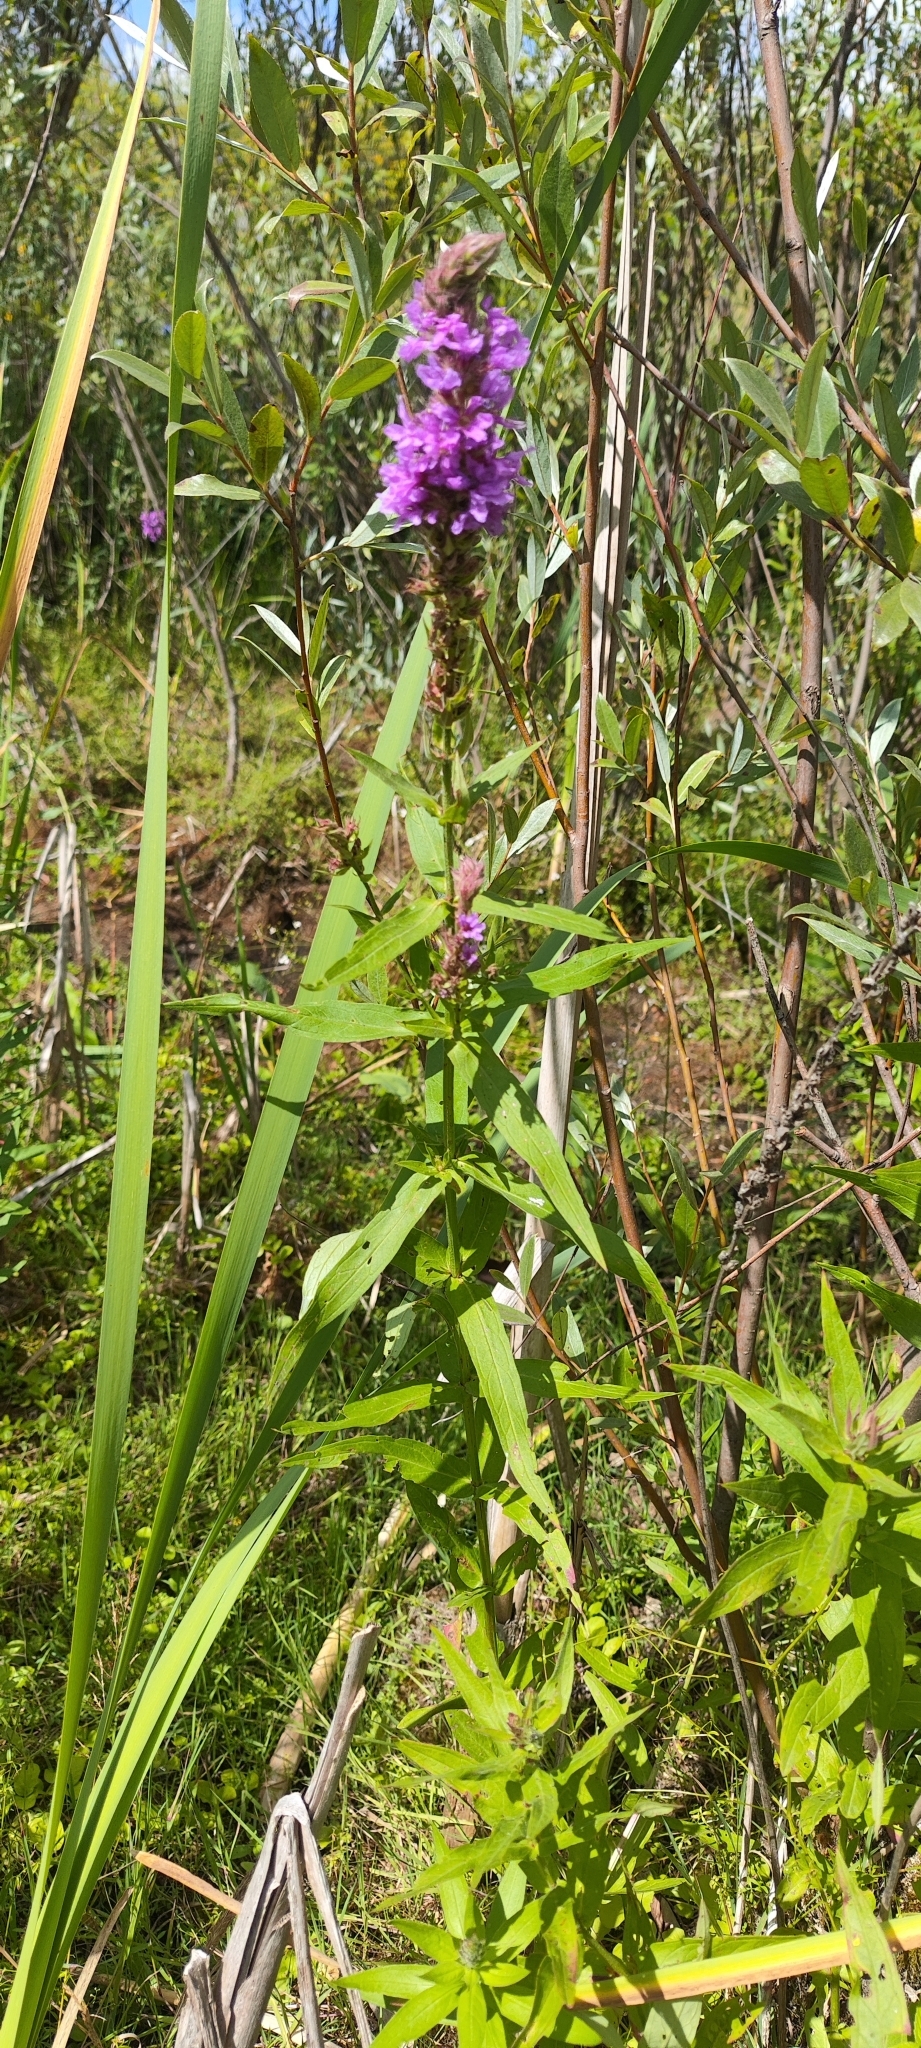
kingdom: Plantae
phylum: Tracheophyta
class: Magnoliopsida
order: Lamiales
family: Lamiaceae
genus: Stachys
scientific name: Stachys palustris
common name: Marsh woundwort
